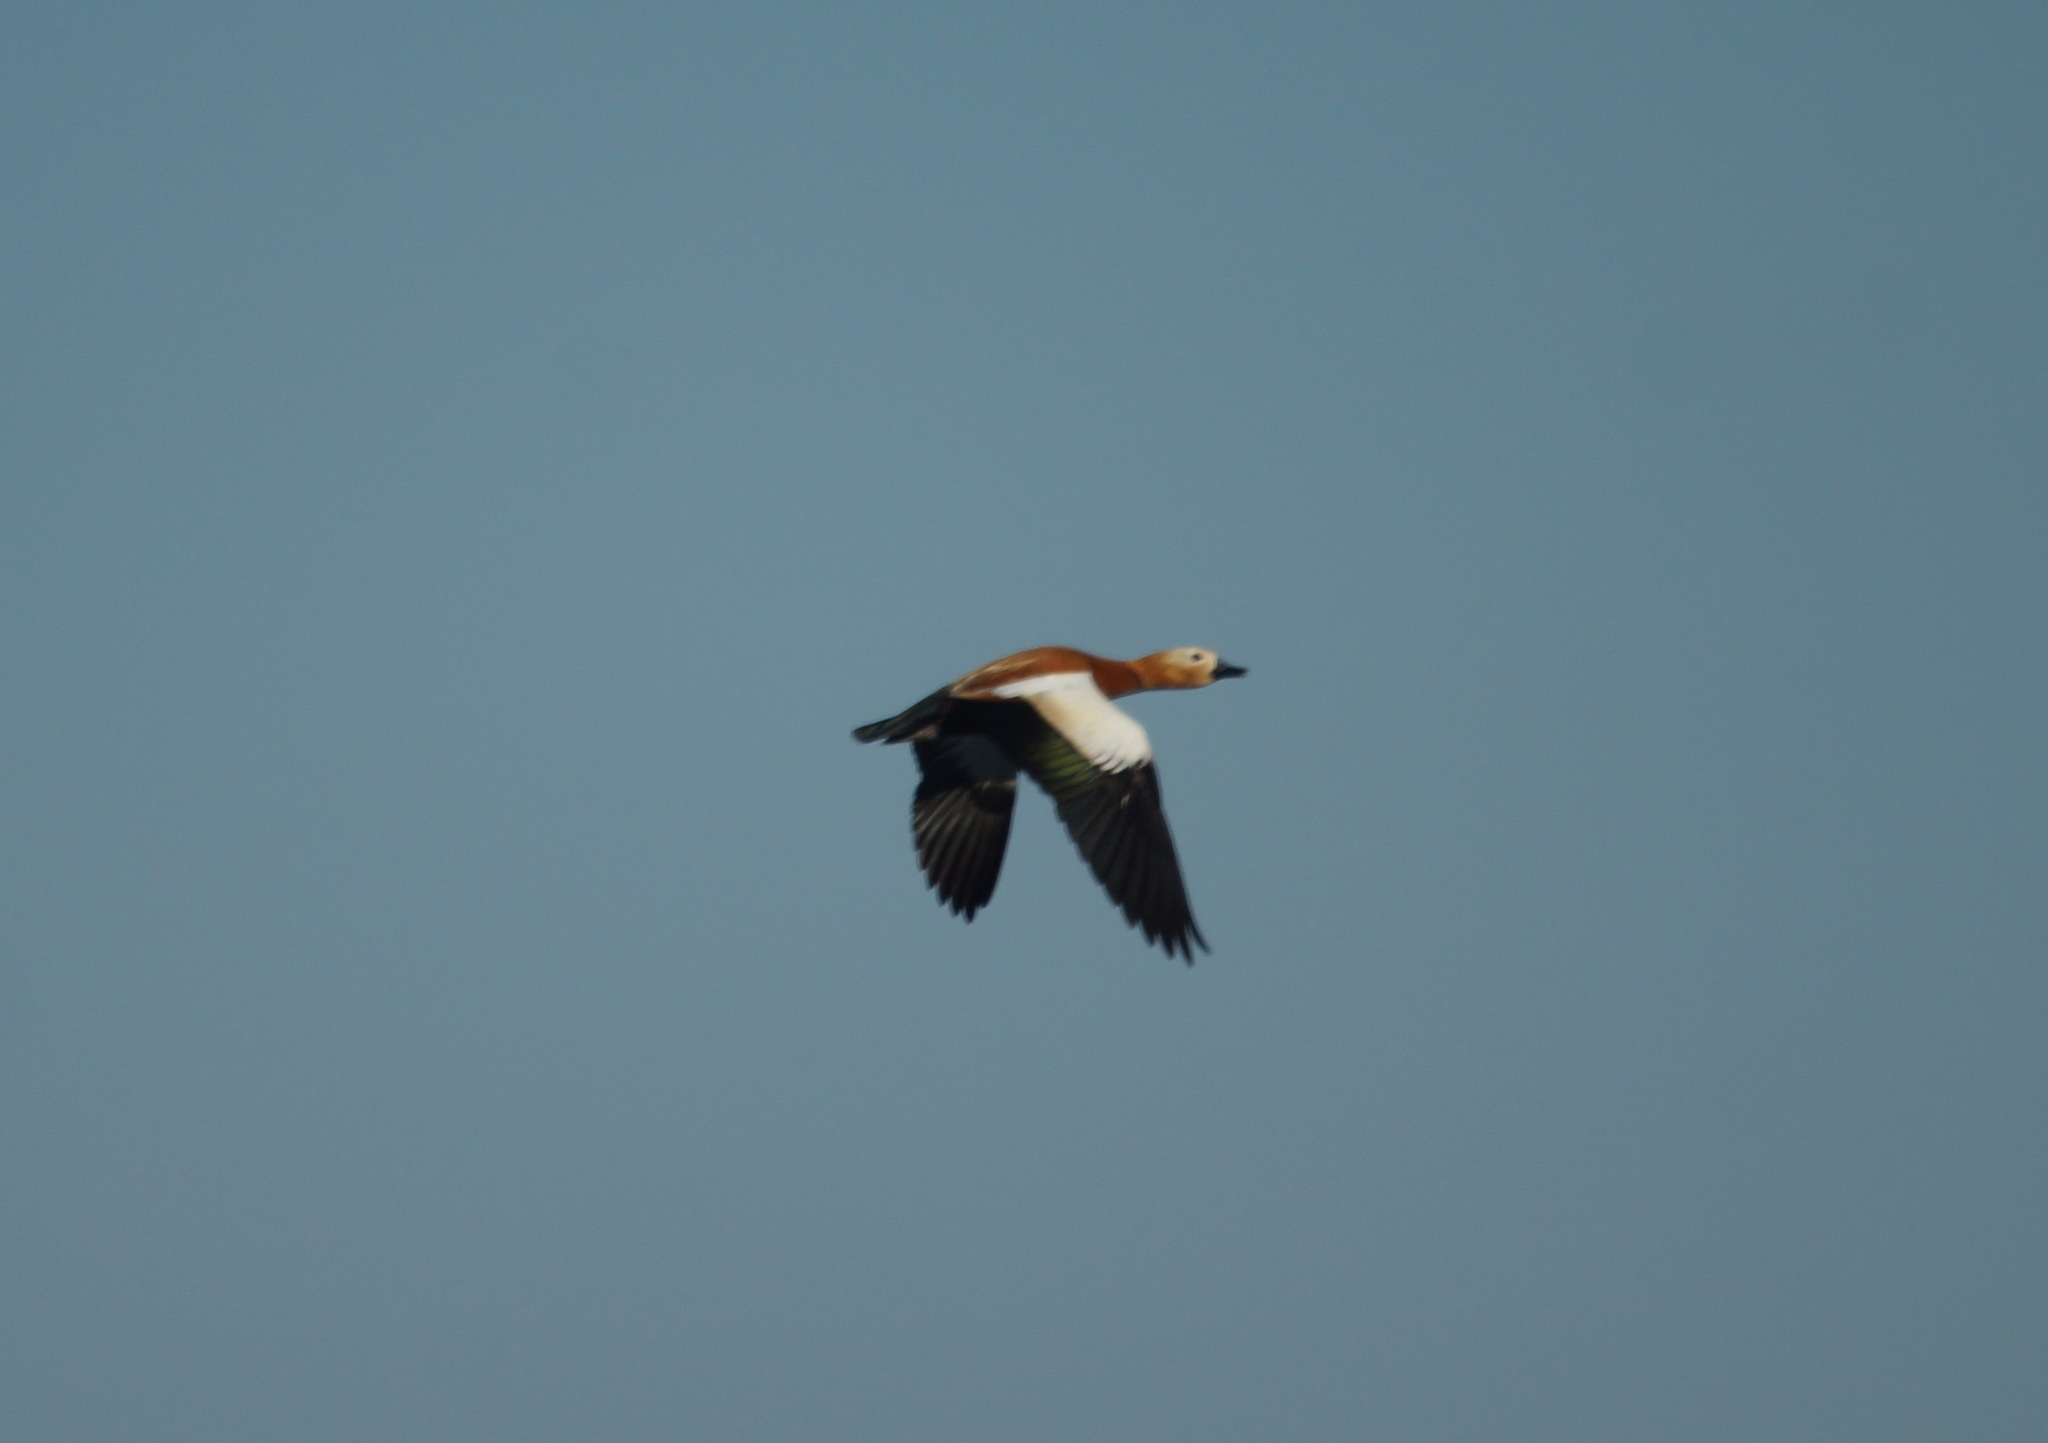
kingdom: Animalia
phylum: Chordata
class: Aves
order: Anseriformes
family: Anatidae
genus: Tadorna
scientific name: Tadorna ferruginea
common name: Ruddy shelduck
